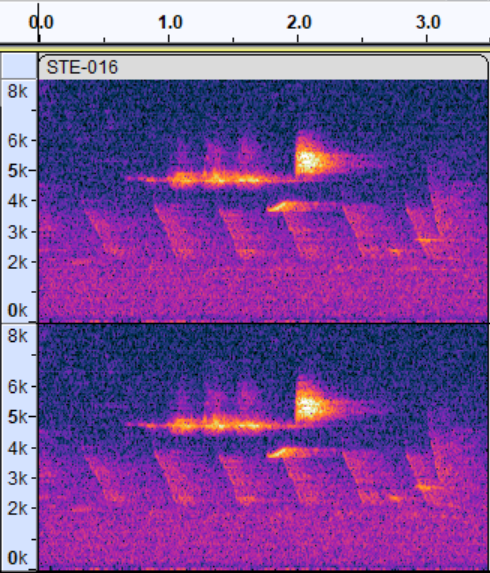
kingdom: Animalia
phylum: Chordata
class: Aves
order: Passeriformes
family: Parulidae
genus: Setophaga
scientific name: Setophaga virens
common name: Black-throated green warbler
